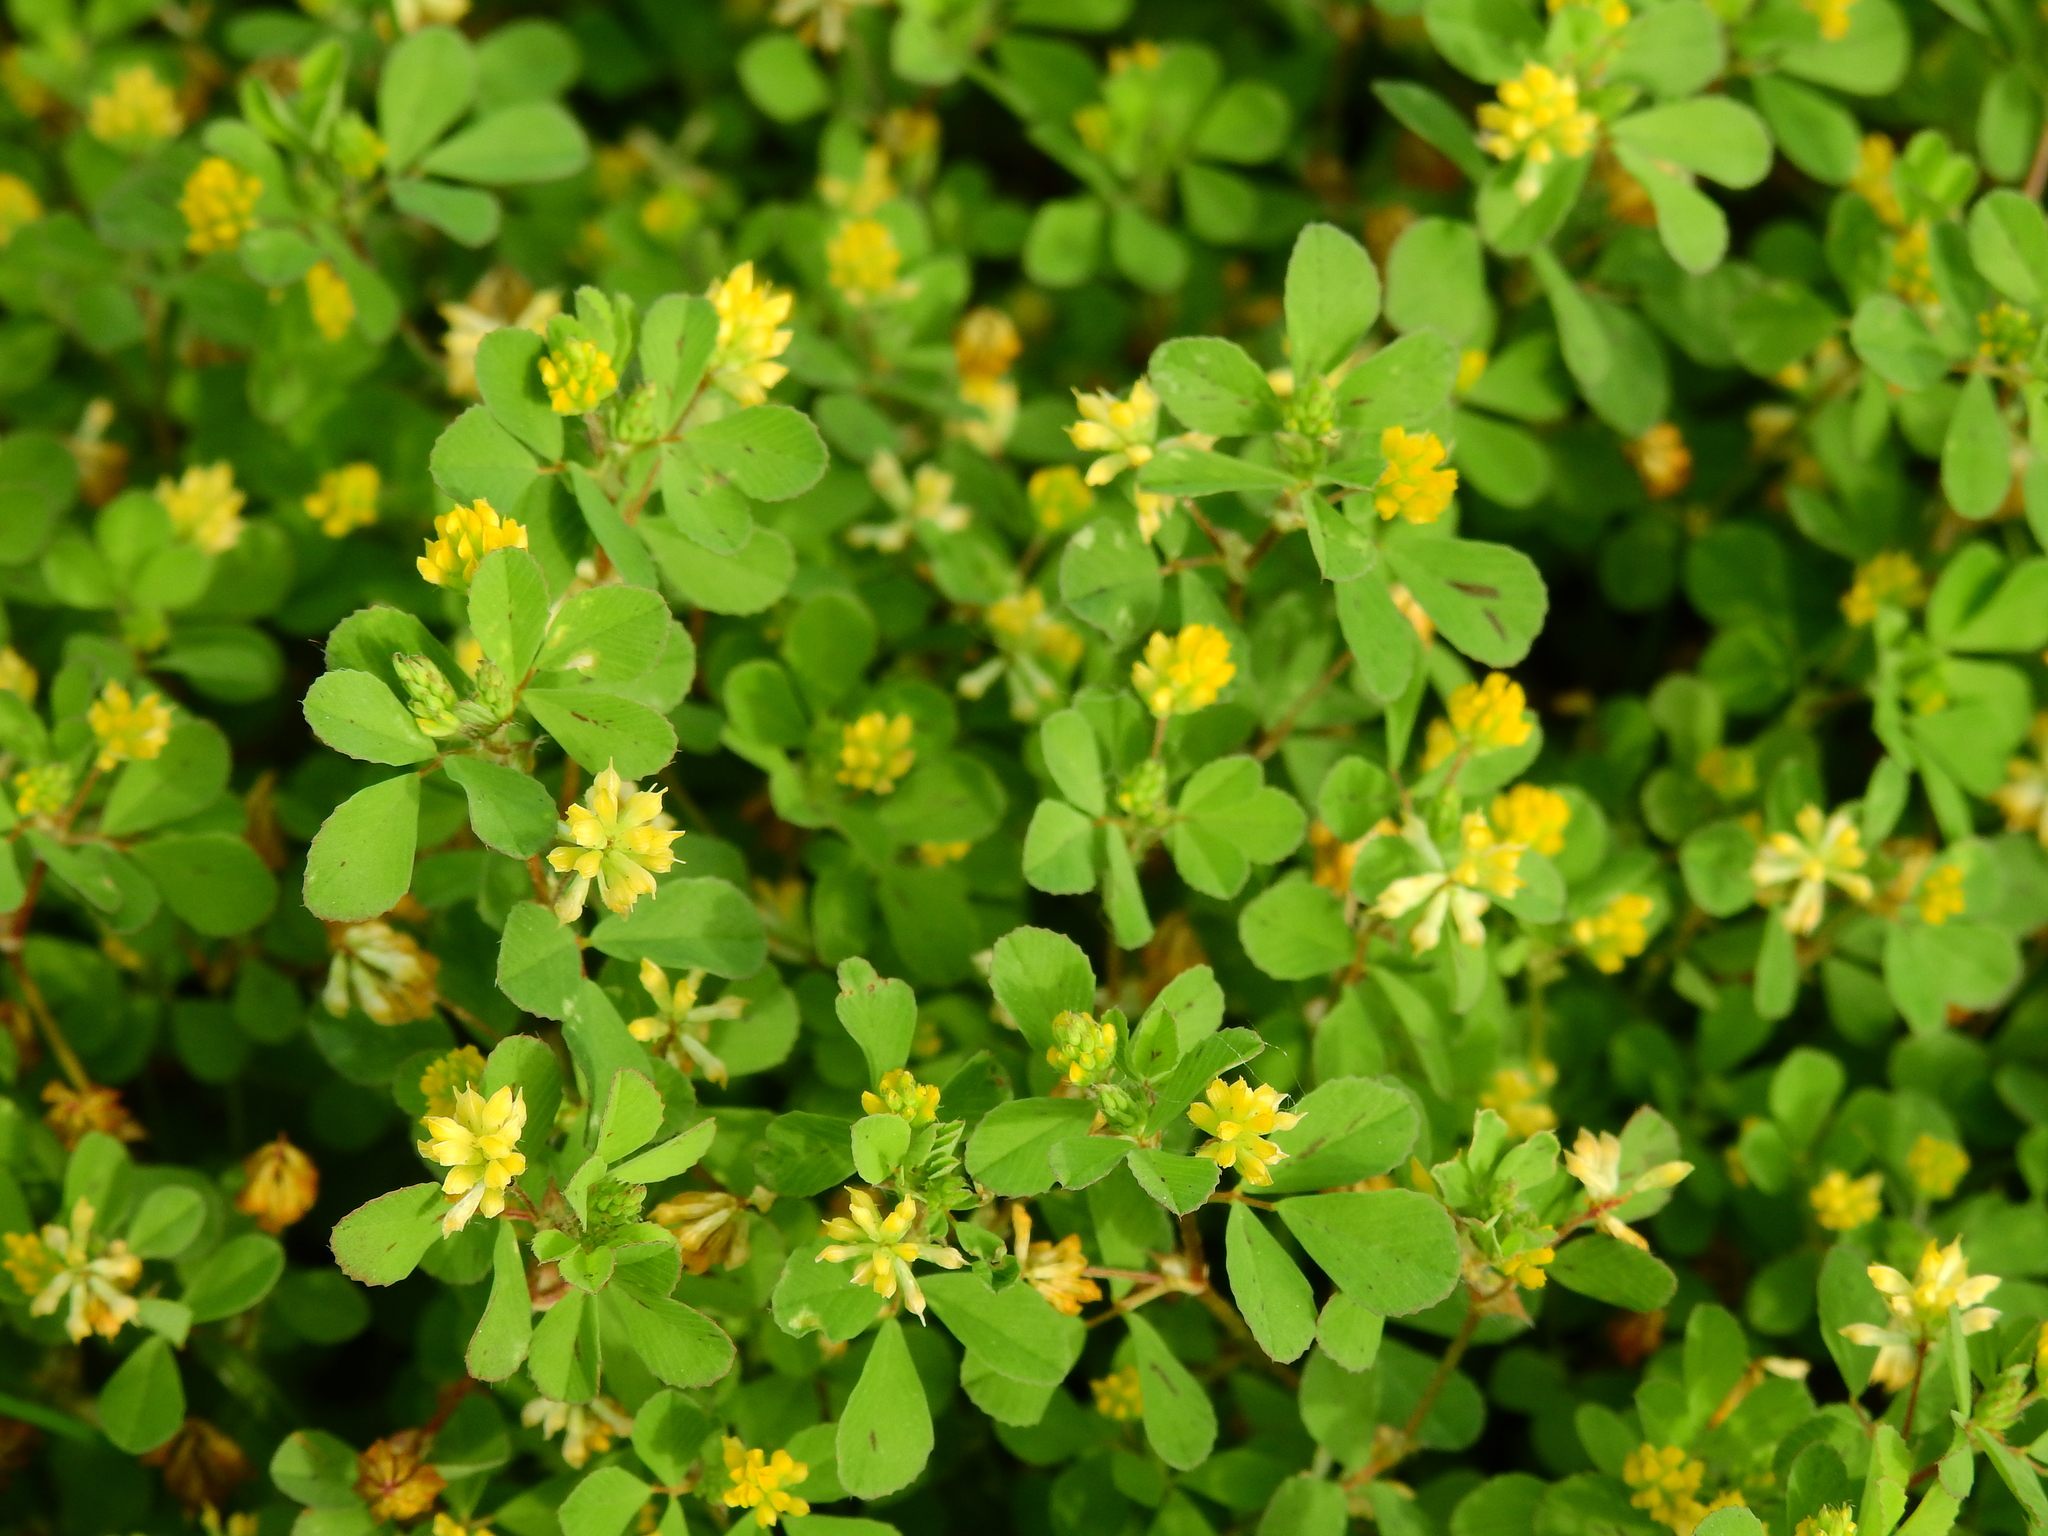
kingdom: Plantae
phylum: Tracheophyta
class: Magnoliopsida
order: Fabales
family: Fabaceae
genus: Trifolium
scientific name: Trifolium dubium
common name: Suckling clover
